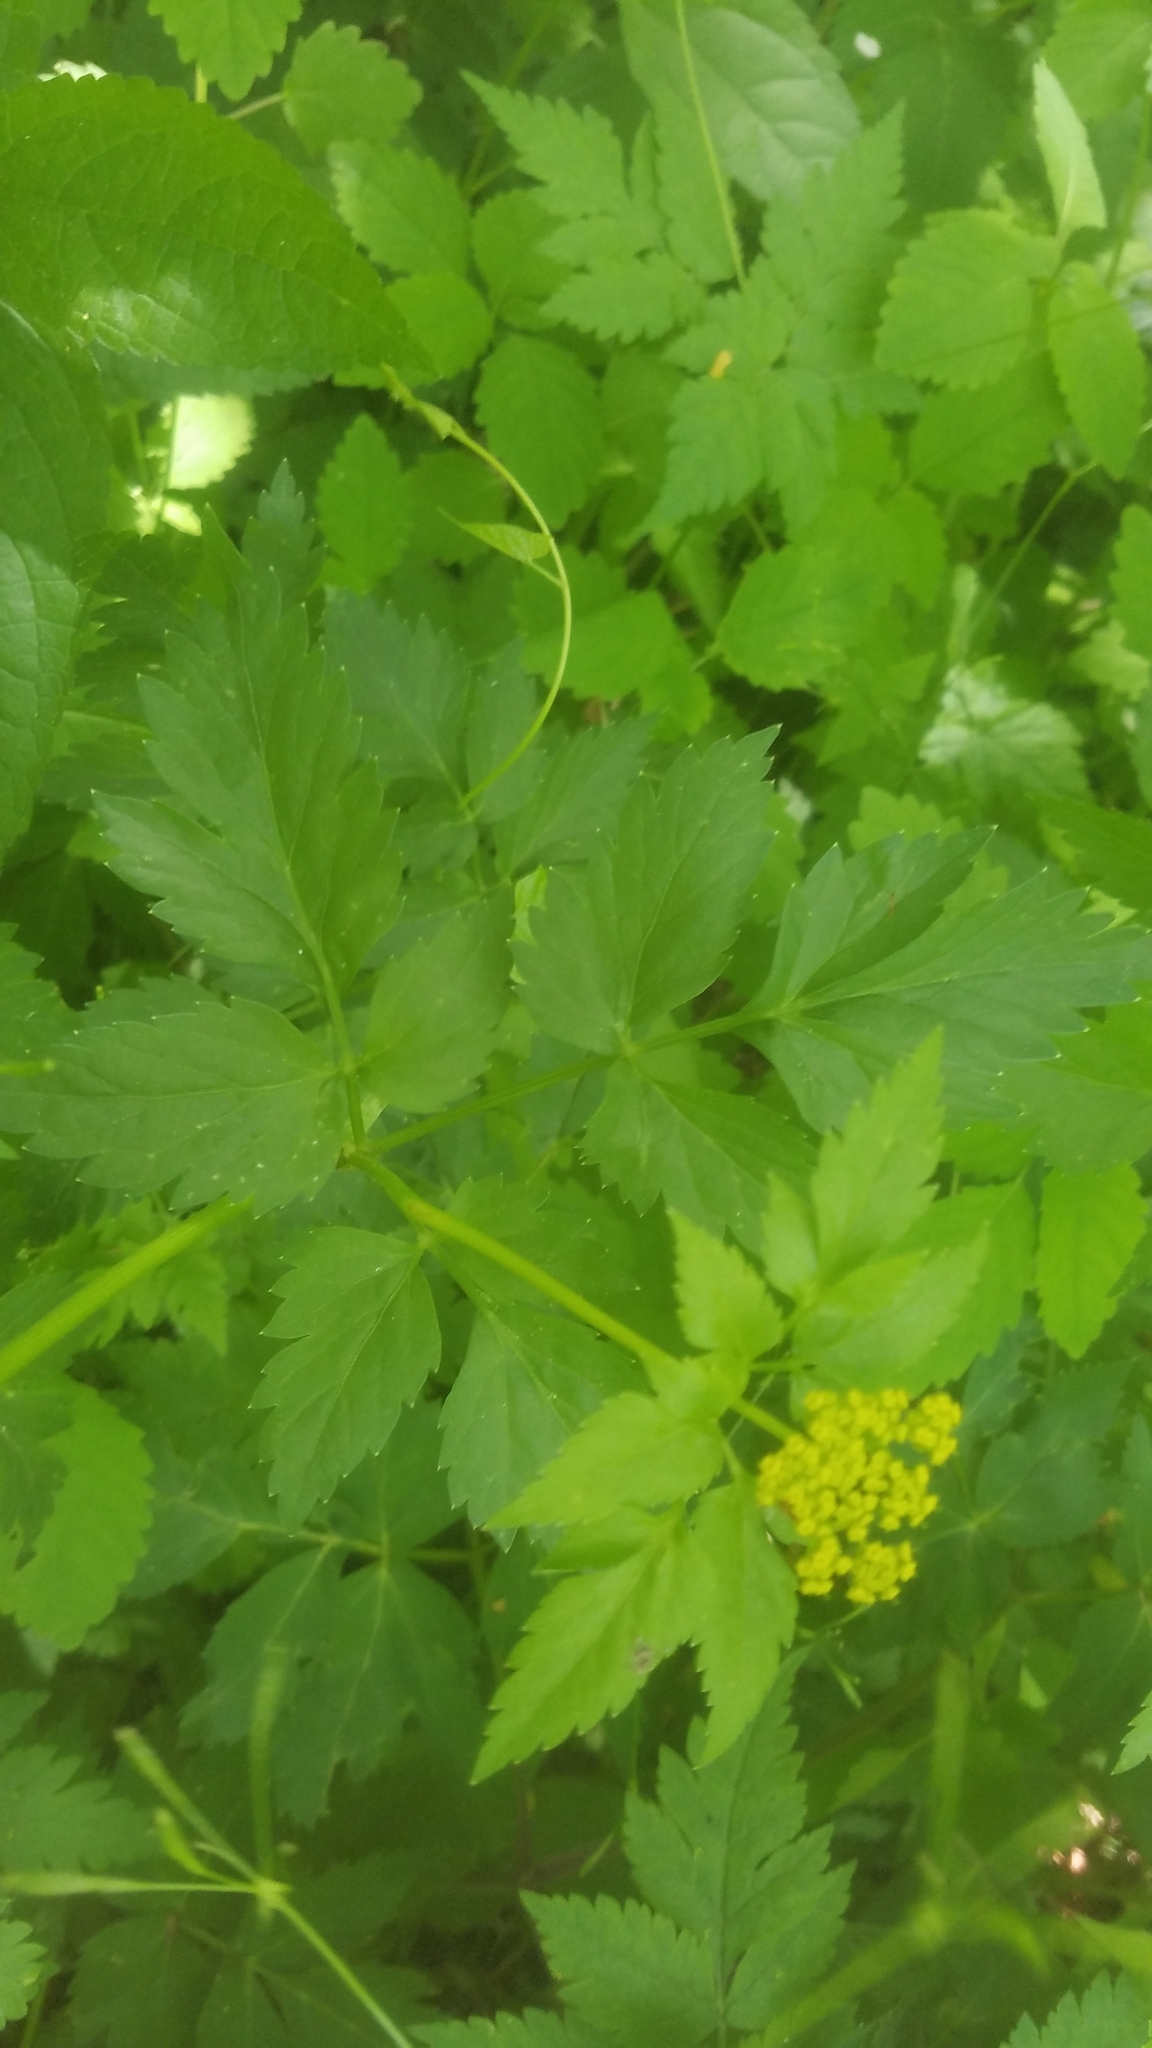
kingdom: Plantae
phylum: Tracheophyta
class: Magnoliopsida
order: Apiales
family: Apiaceae
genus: Zizia
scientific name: Zizia aurea
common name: Golden alexanders
